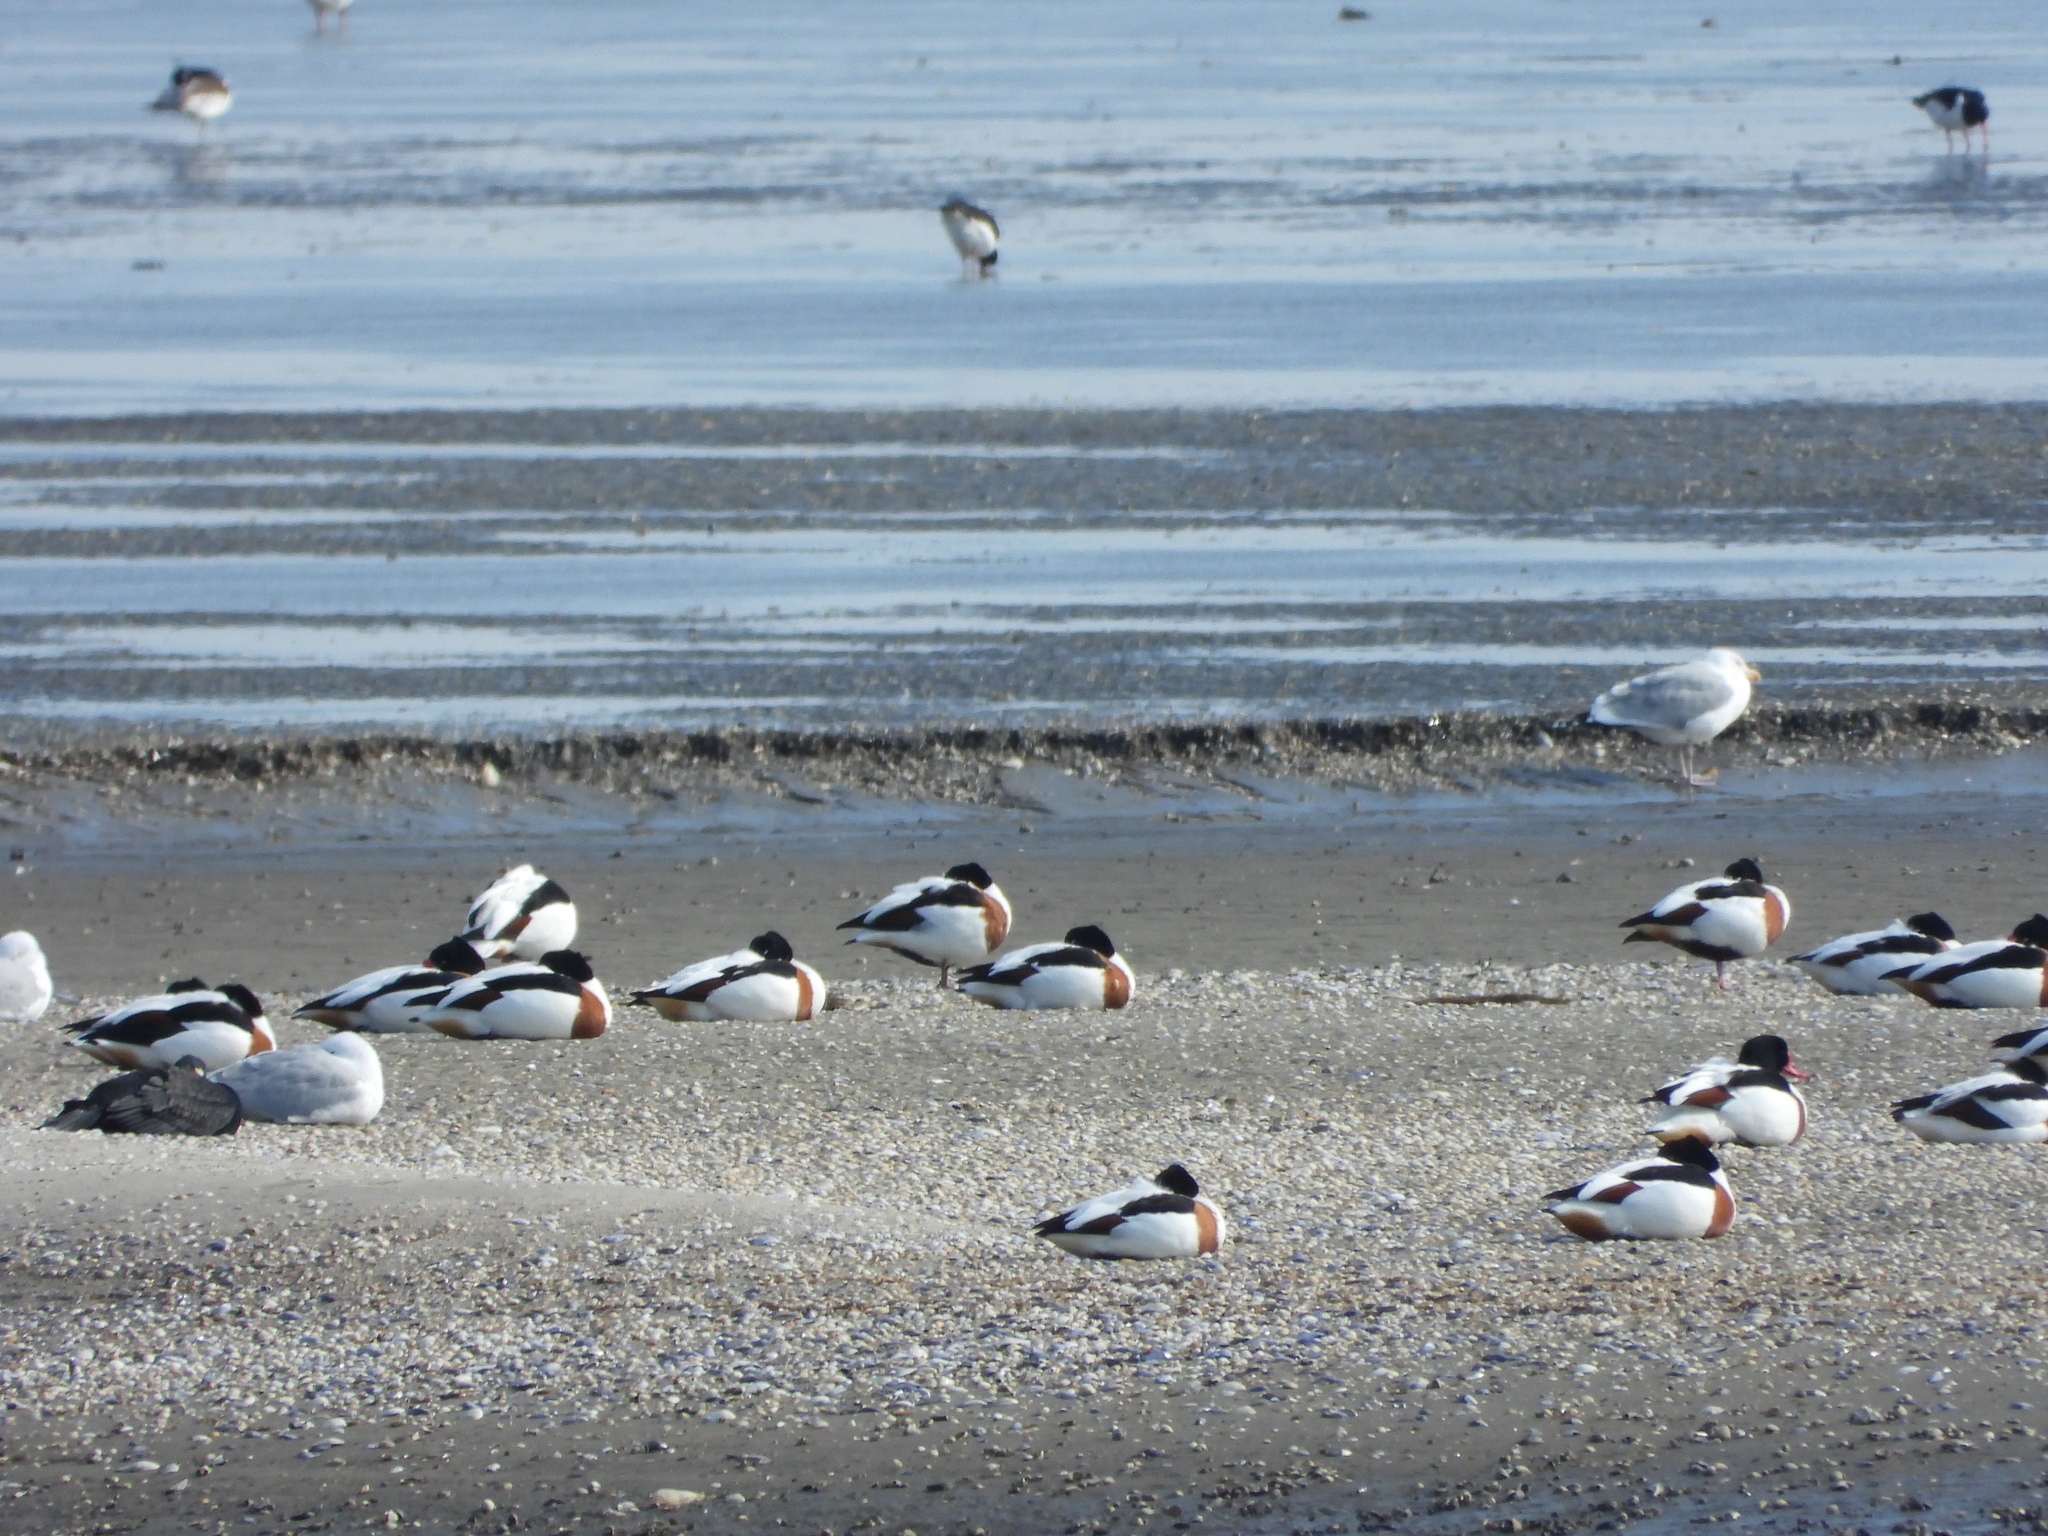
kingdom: Animalia
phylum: Chordata
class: Aves
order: Anseriformes
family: Anatidae
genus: Tadorna
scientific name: Tadorna tadorna
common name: Common shelduck
